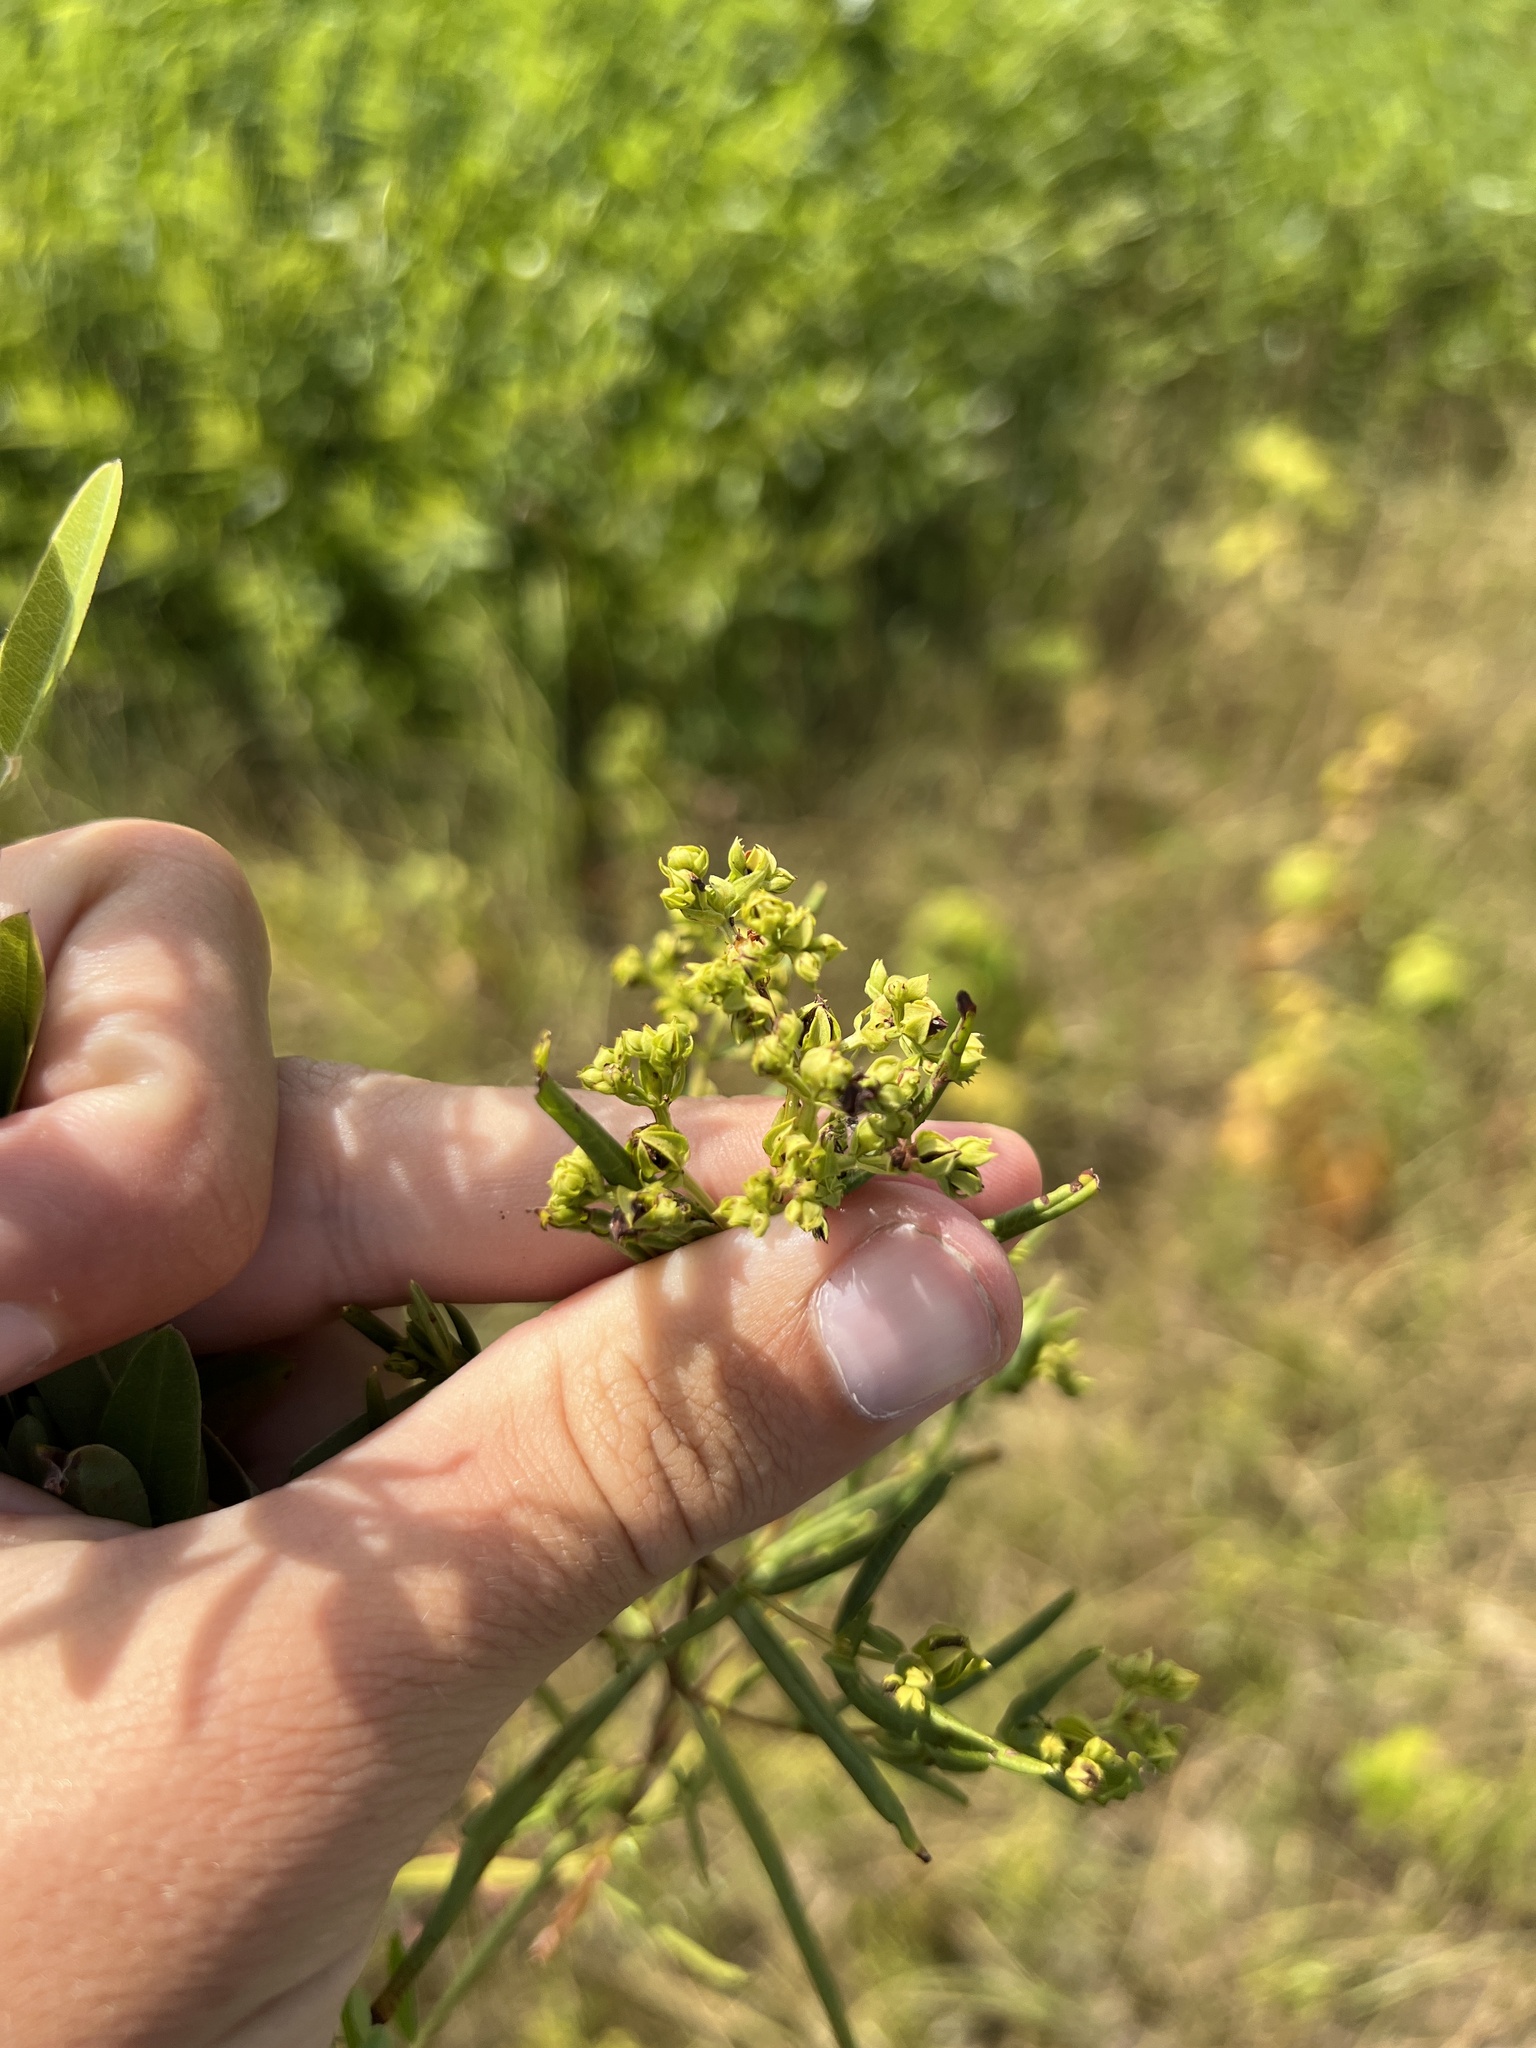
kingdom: Plantae
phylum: Tracheophyta
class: Magnoliopsida
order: Malpighiales
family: Hypericaceae
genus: Hypericum
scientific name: Hypericum sphaerocarpum
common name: Round-fruited st. john's-wort
